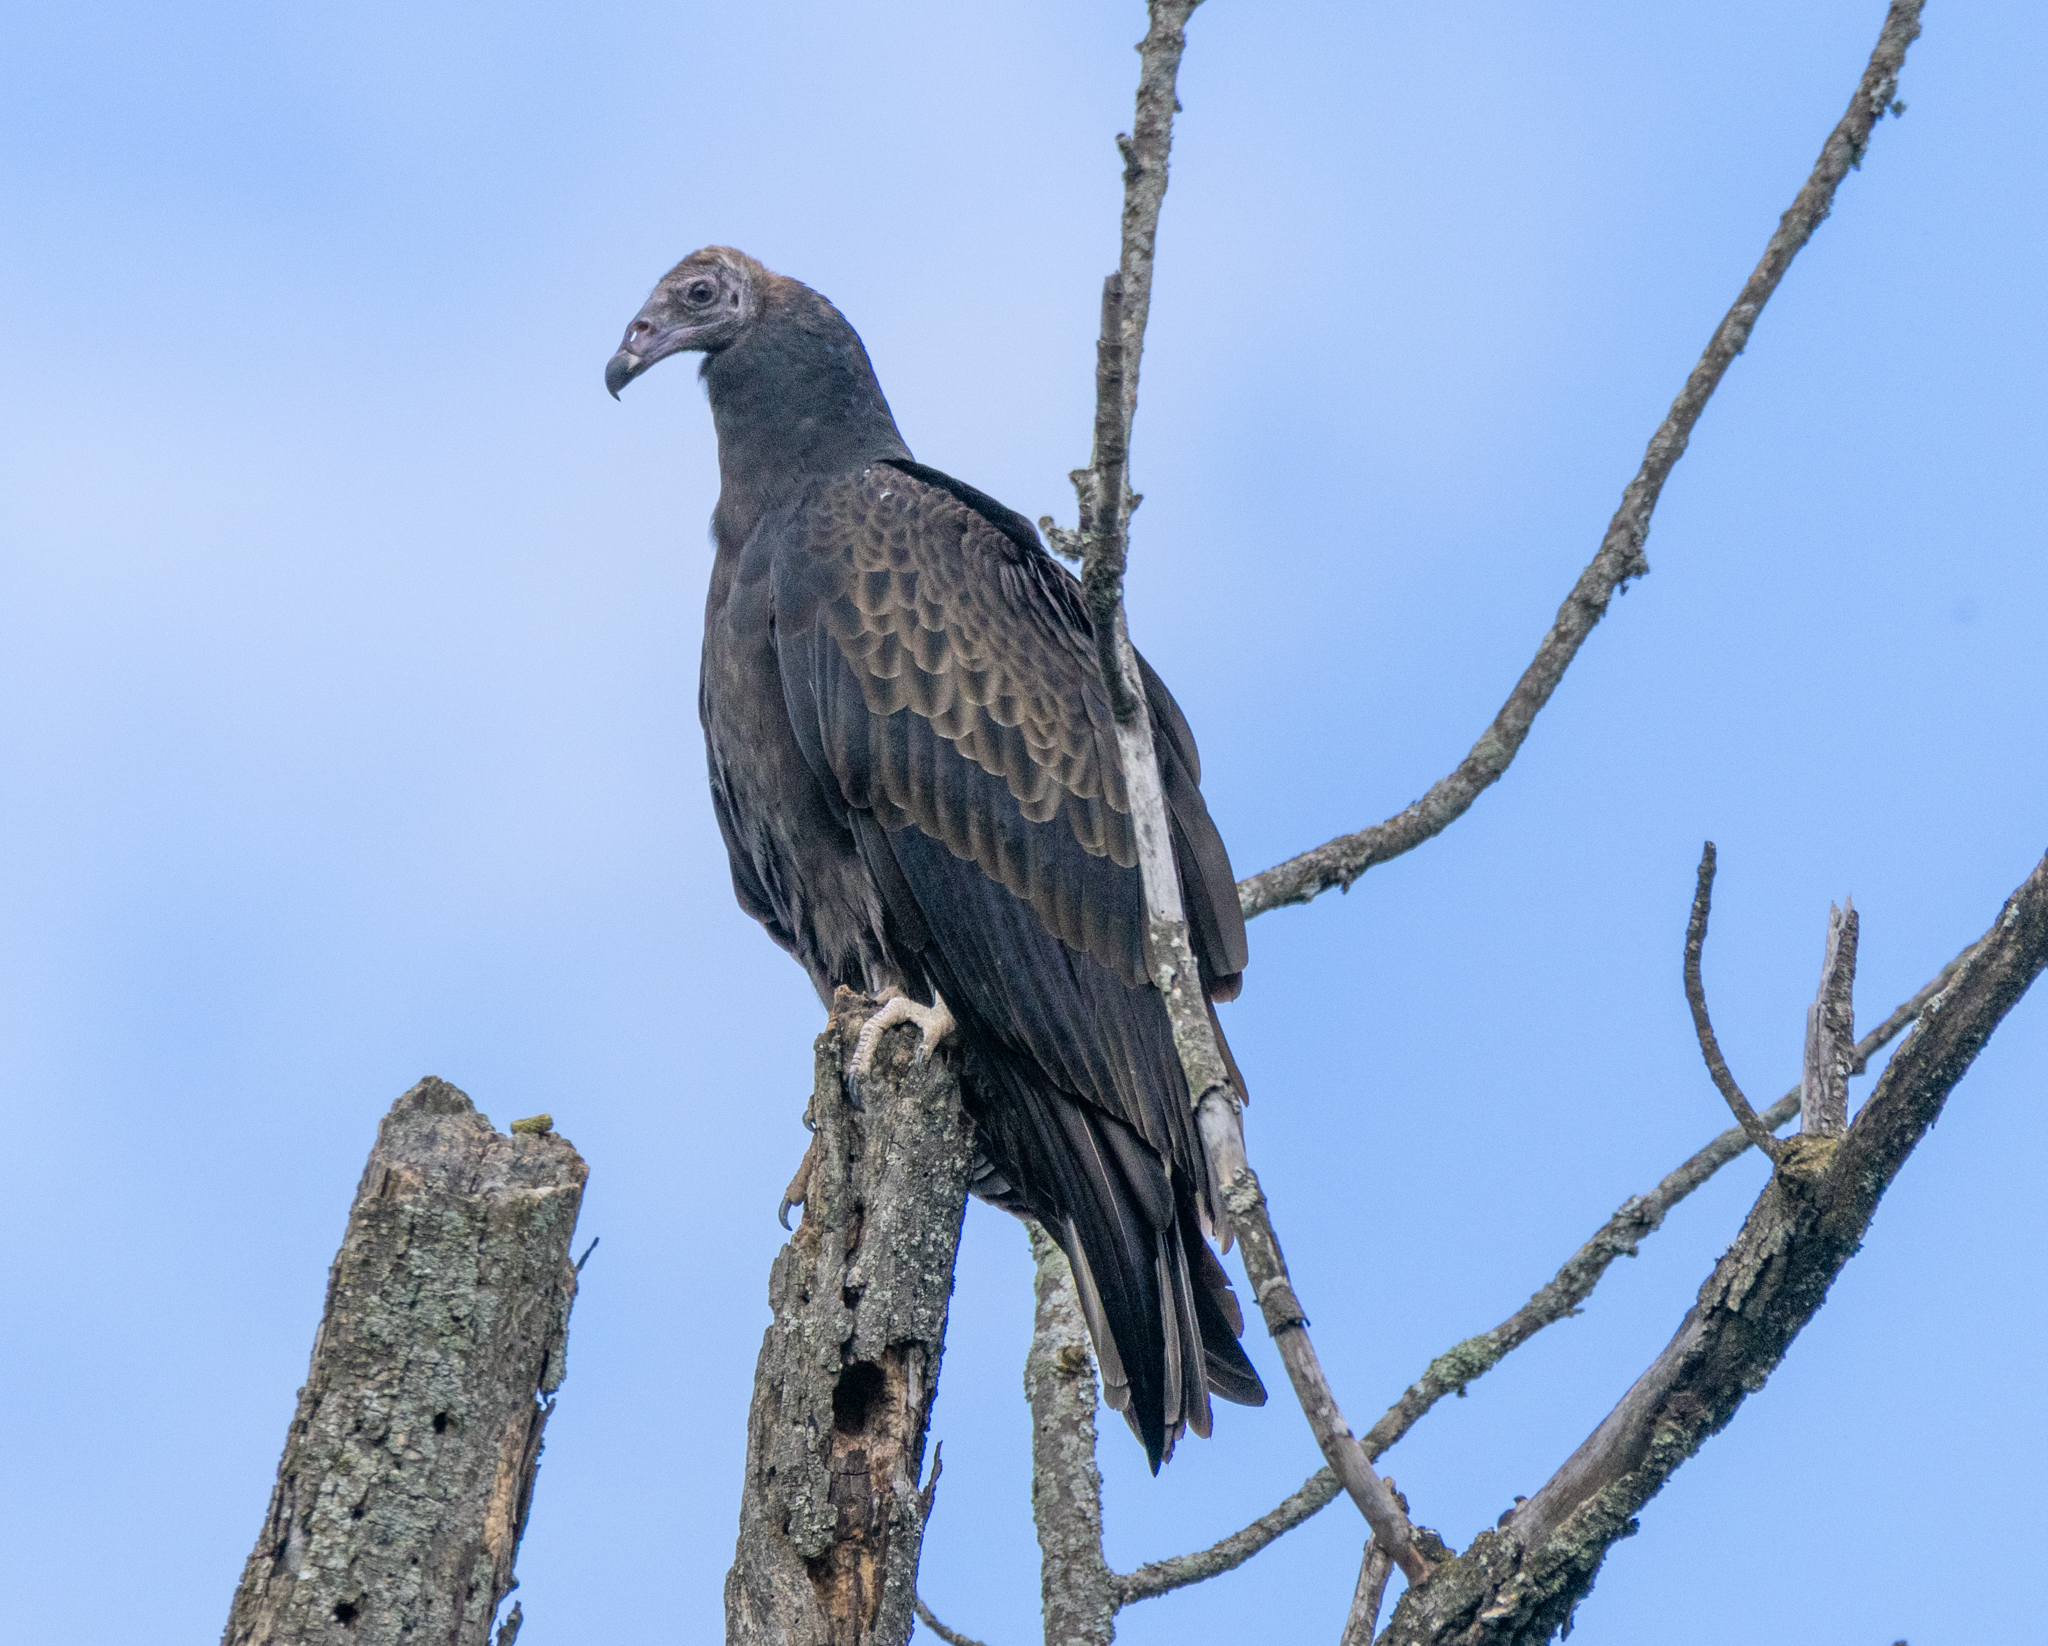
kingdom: Animalia
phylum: Chordata
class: Aves
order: Accipitriformes
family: Cathartidae
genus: Cathartes
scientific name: Cathartes aura
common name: Turkey vulture
